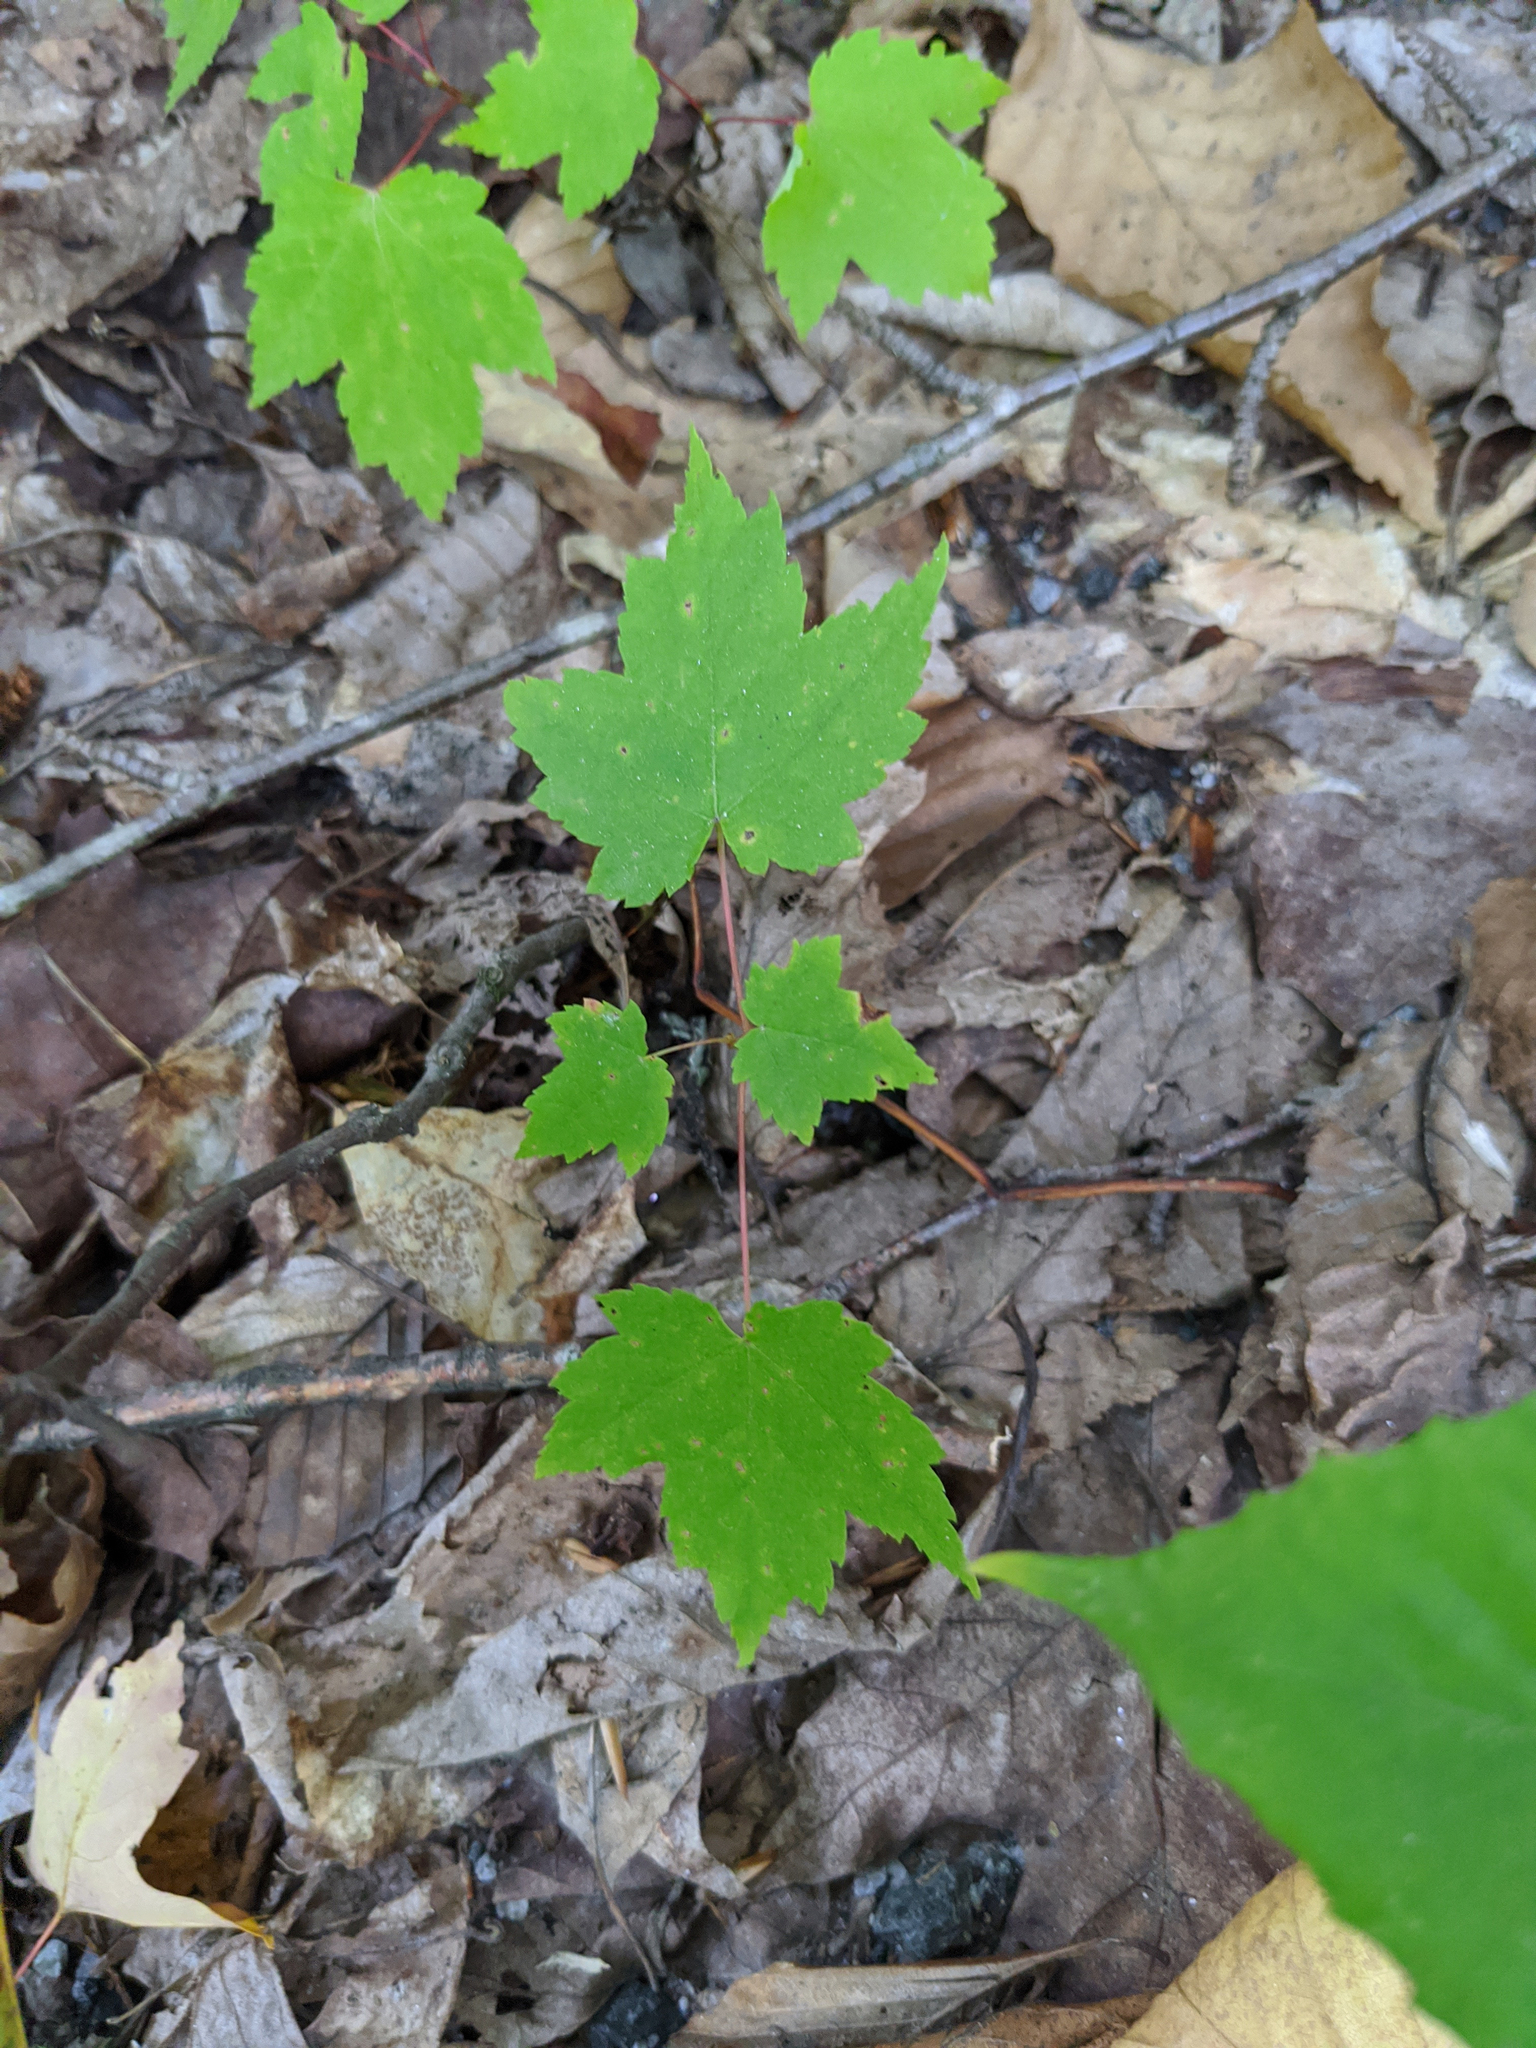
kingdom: Plantae
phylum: Tracheophyta
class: Magnoliopsida
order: Sapindales
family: Sapindaceae
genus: Acer
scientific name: Acer rubrum
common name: Red maple
